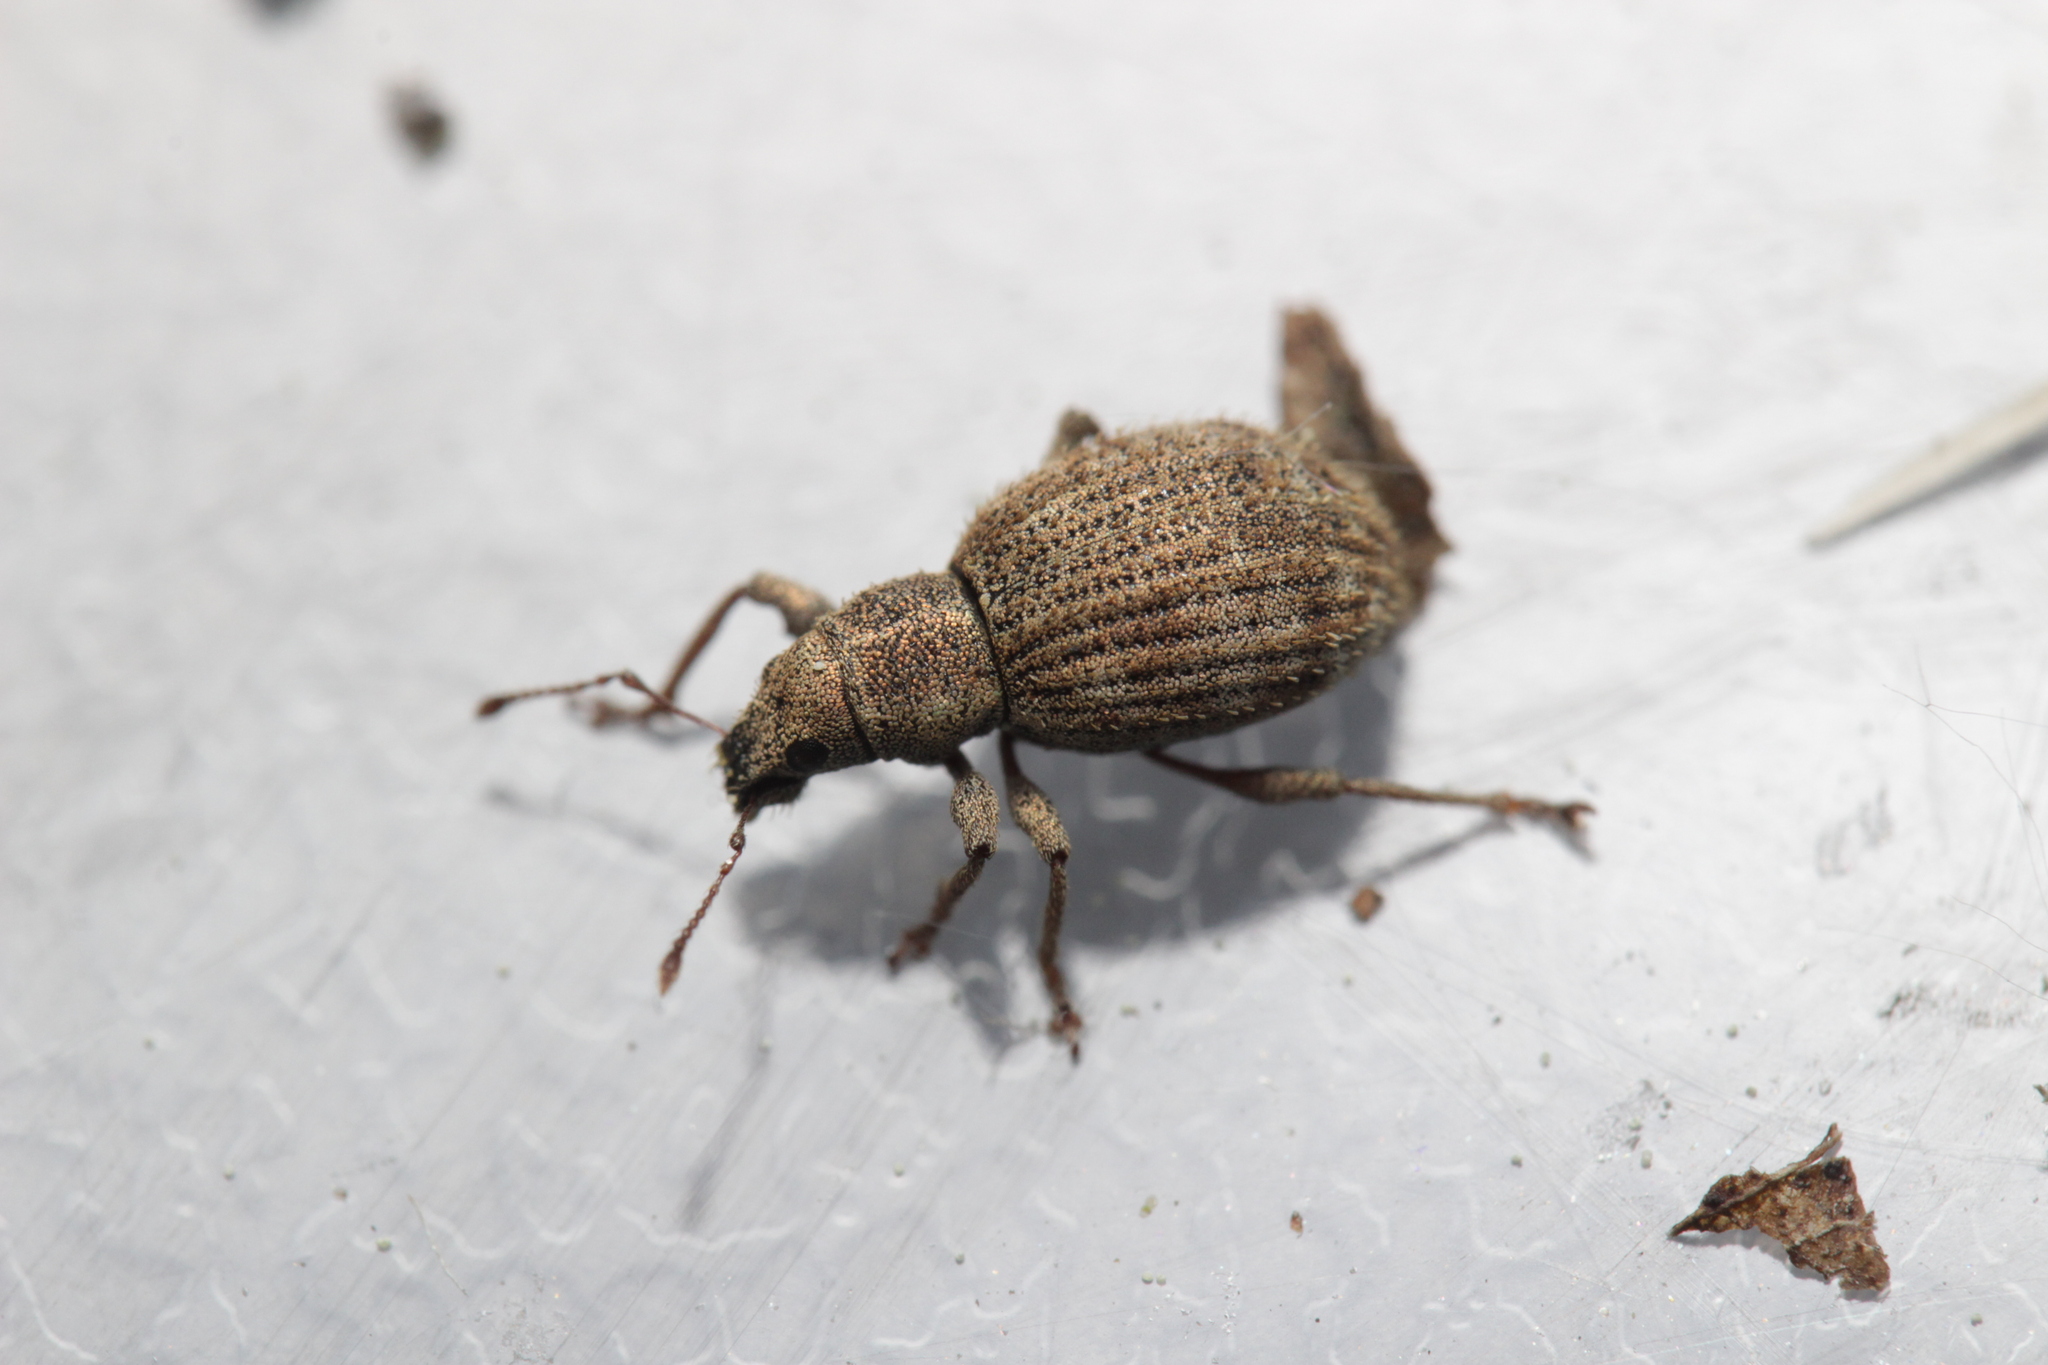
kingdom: Animalia
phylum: Arthropoda
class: Insecta
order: Coleoptera
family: Curculionidae
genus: Sciaphilus
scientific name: Sciaphilus asperatus
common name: Weevil
